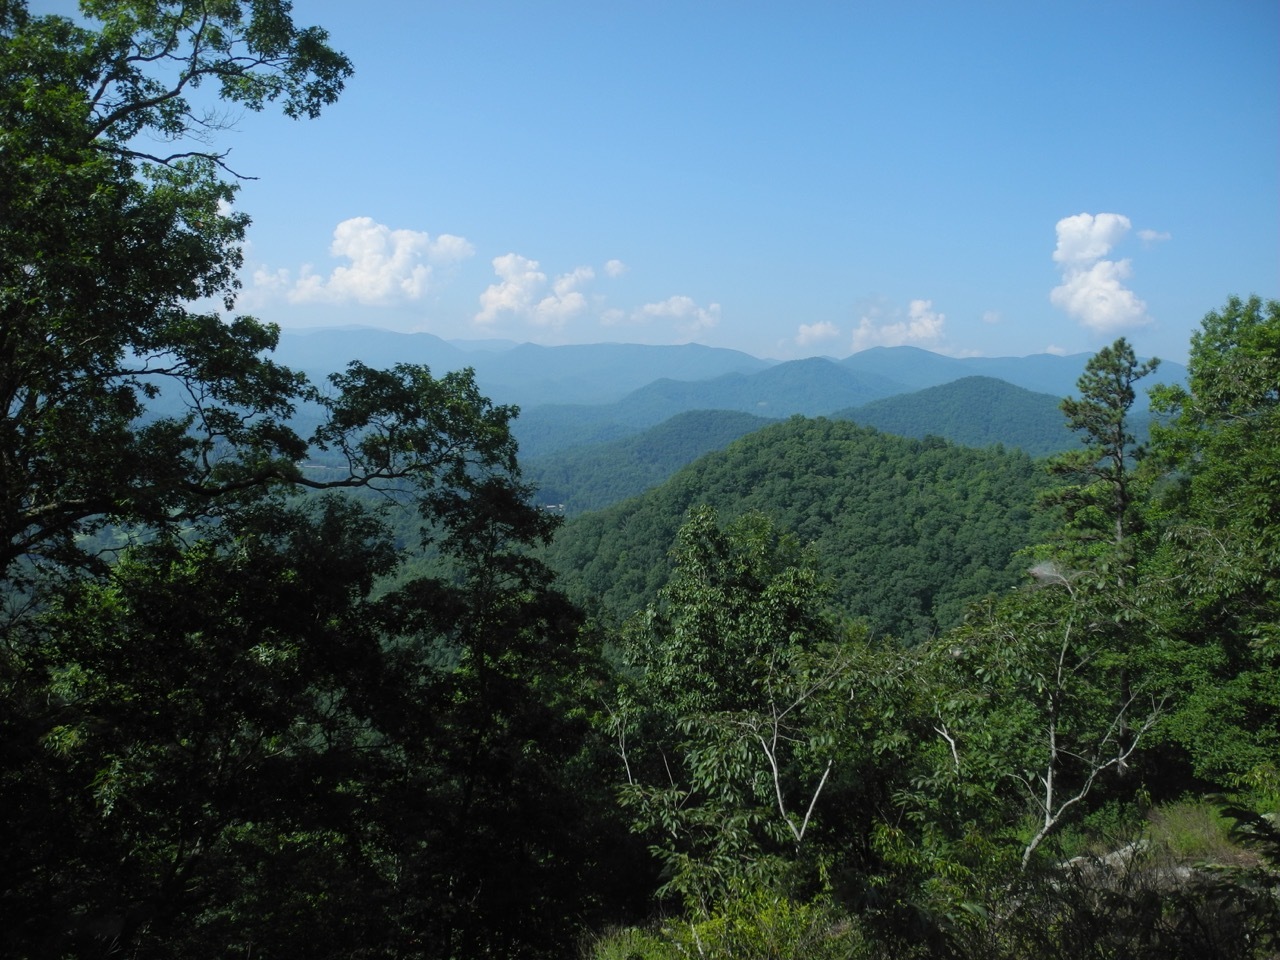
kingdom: Plantae
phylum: Tracheophyta
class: Magnoliopsida
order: Fagales
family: Fagaceae
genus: Quercus
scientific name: Quercus coccinea
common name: Scarlet oak
